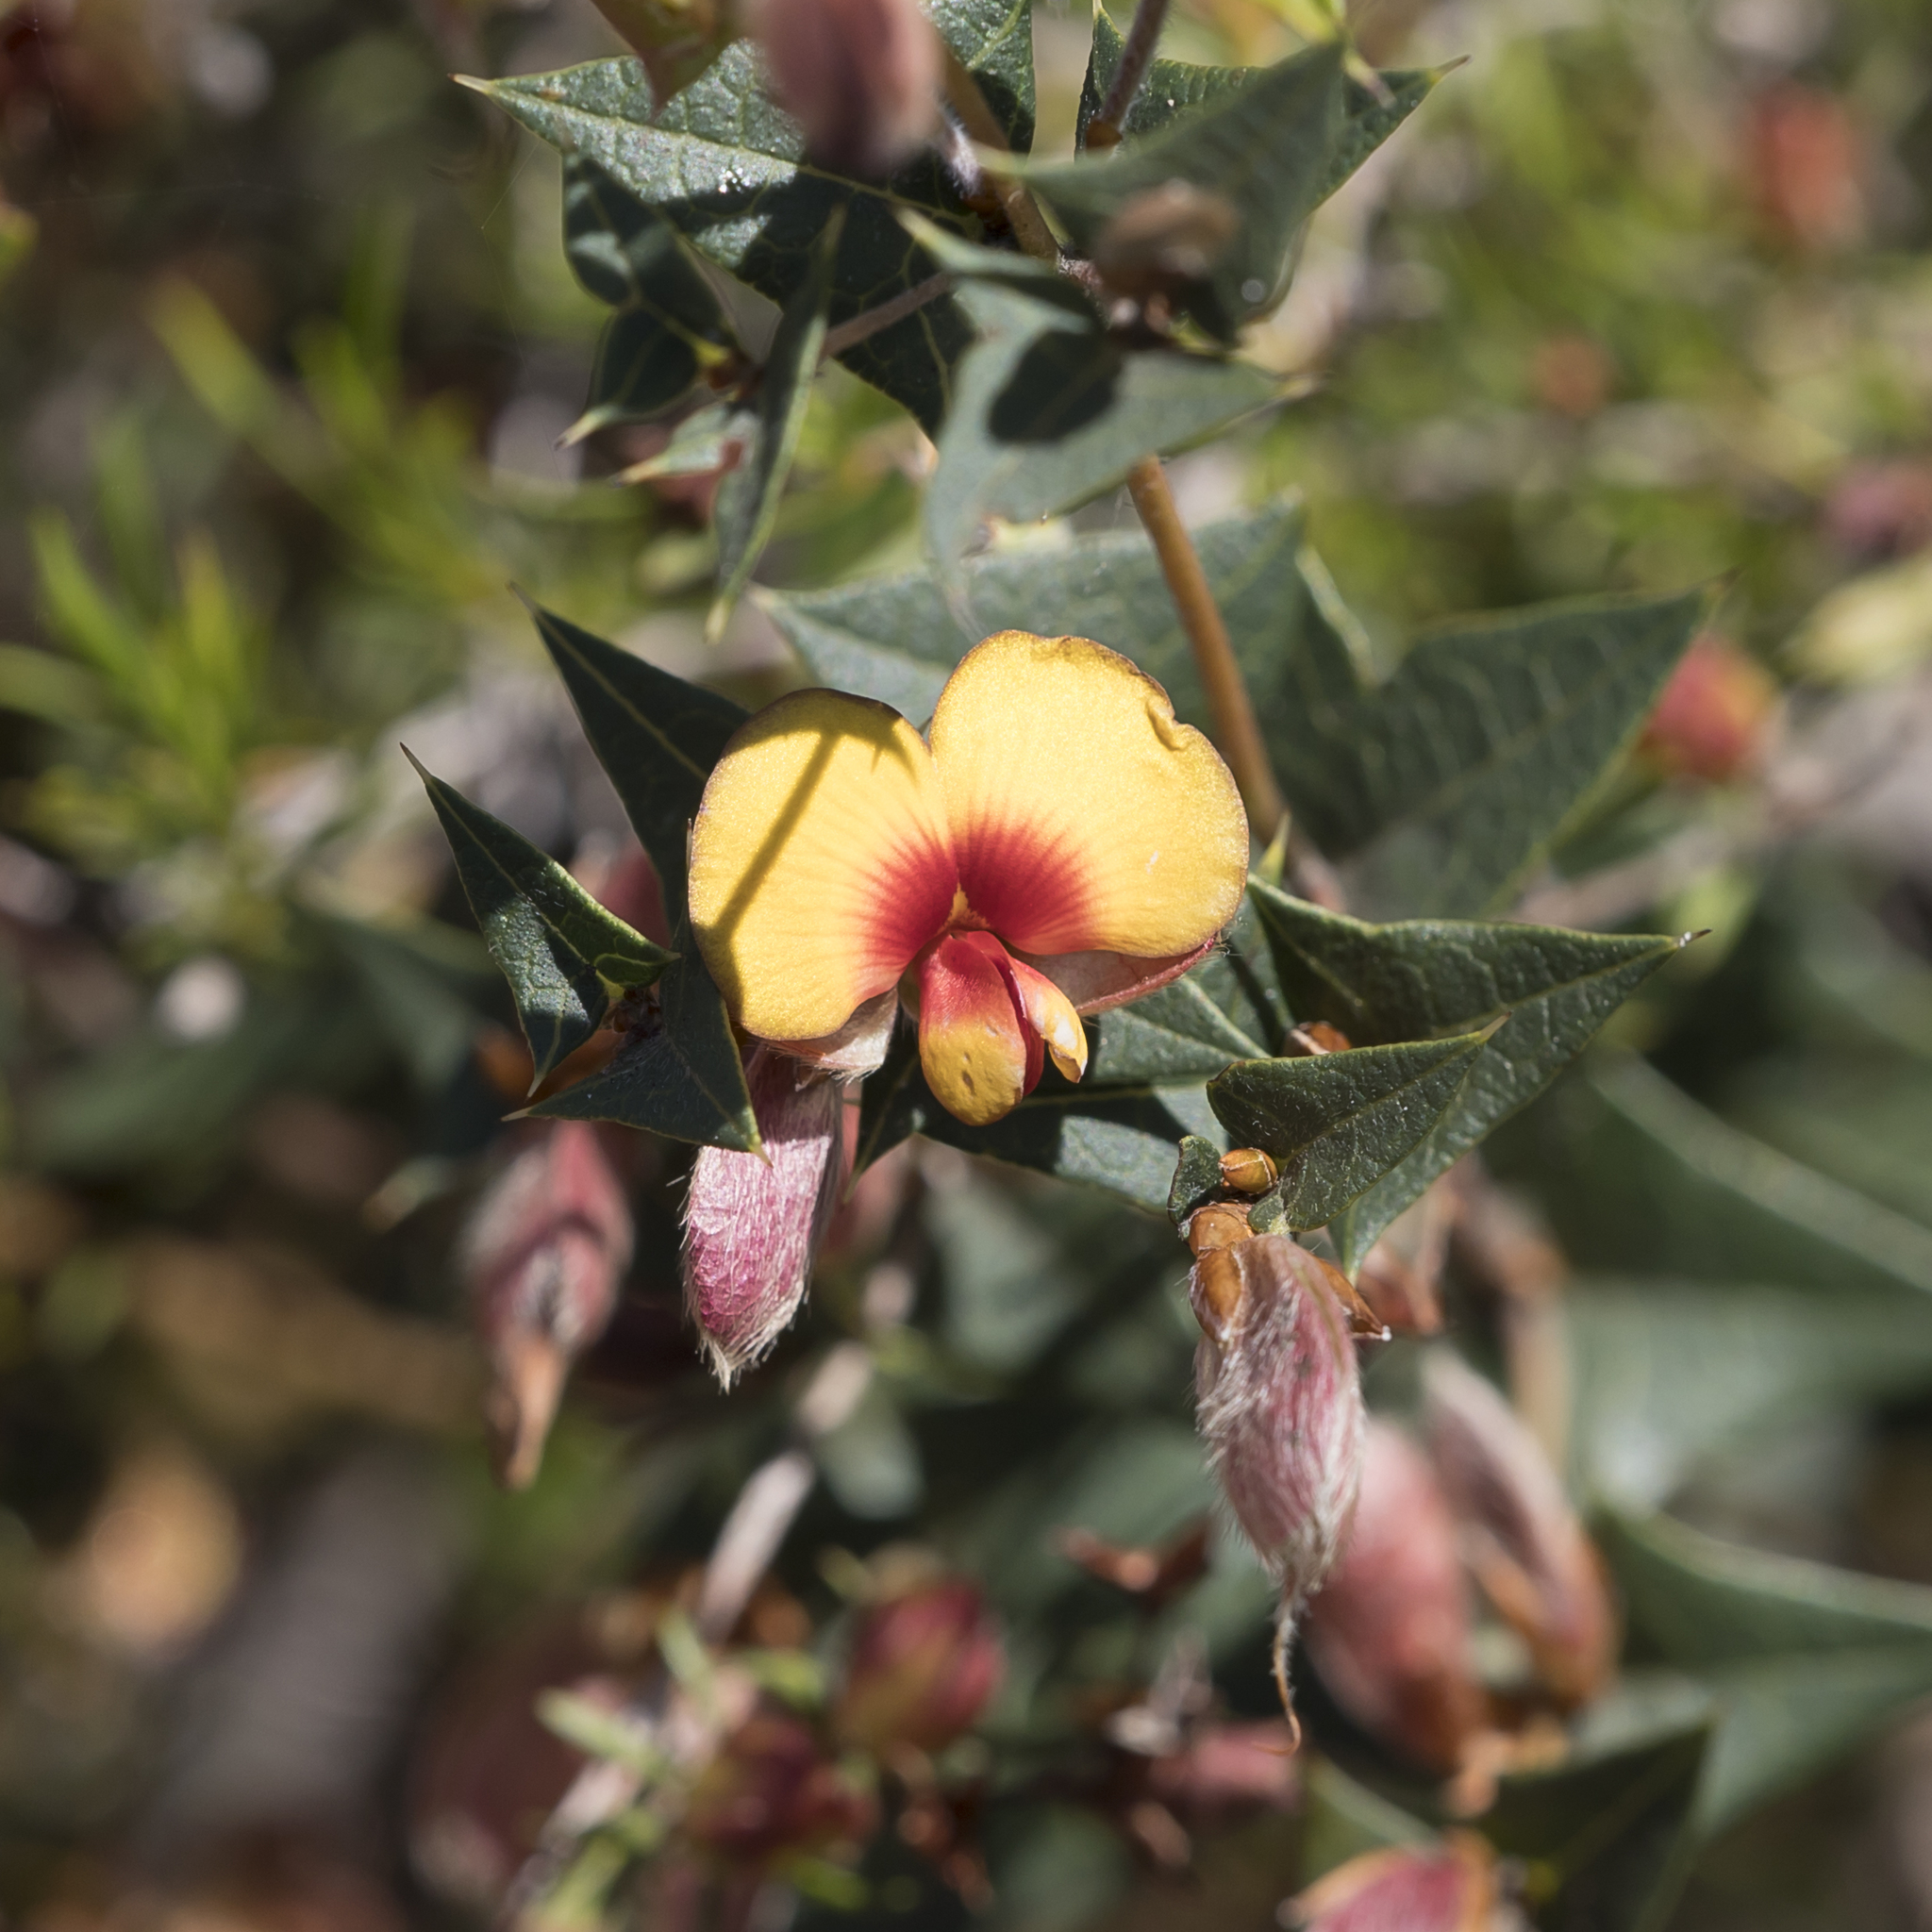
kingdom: Plantae
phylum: Tracheophyta
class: Magnoliopsida
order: Fabales
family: Fabaceae
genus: Platylobium
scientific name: Platylobium obtusangulum
